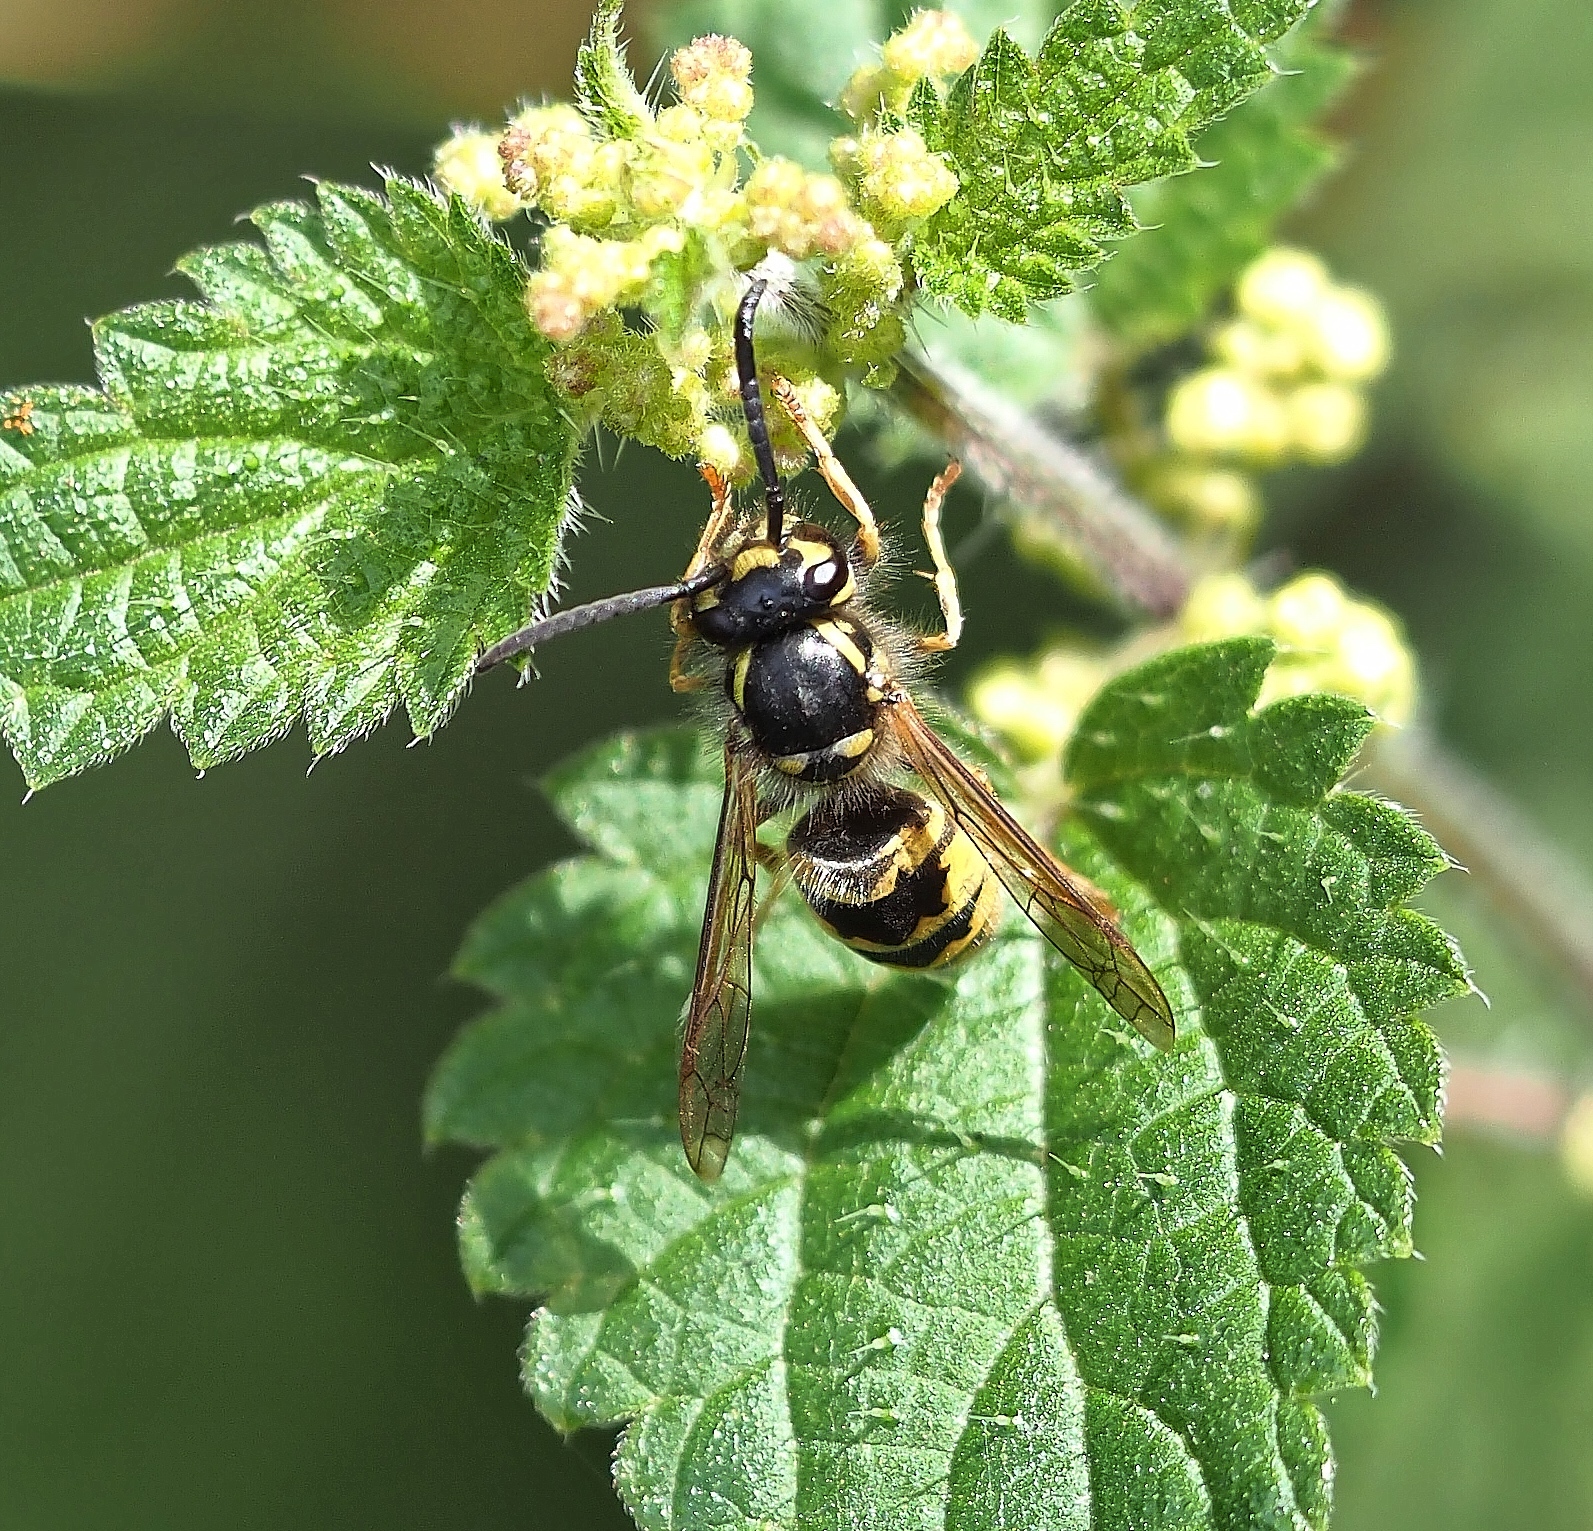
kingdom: Animalia
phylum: Arthropoda
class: Insecta
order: Hymenoptera
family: Vespidae
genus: Vespula
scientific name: Vespula vulgaris
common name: Common wasp
